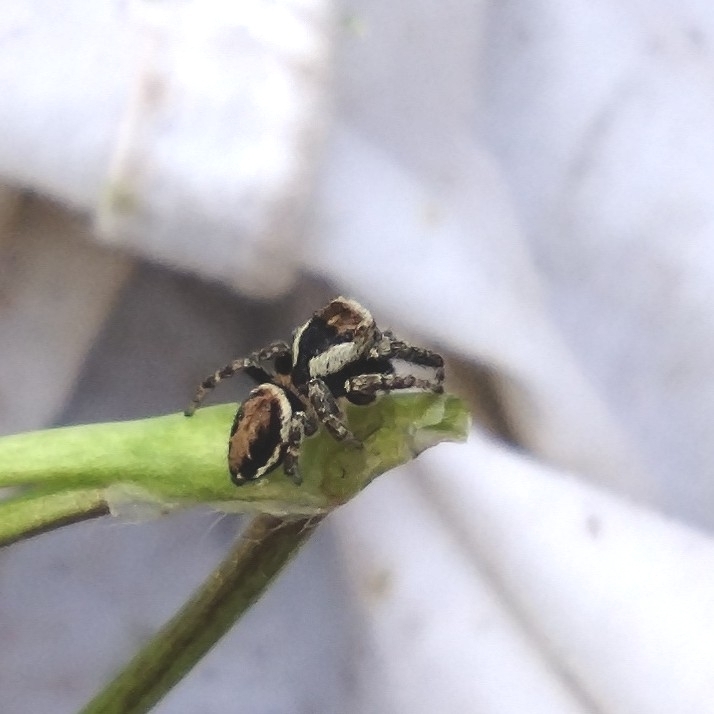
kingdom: Animalia
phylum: Arthropoda
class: Arachnida
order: Araneae
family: Salticidae
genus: Evarcha
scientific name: Evarcha falcata
